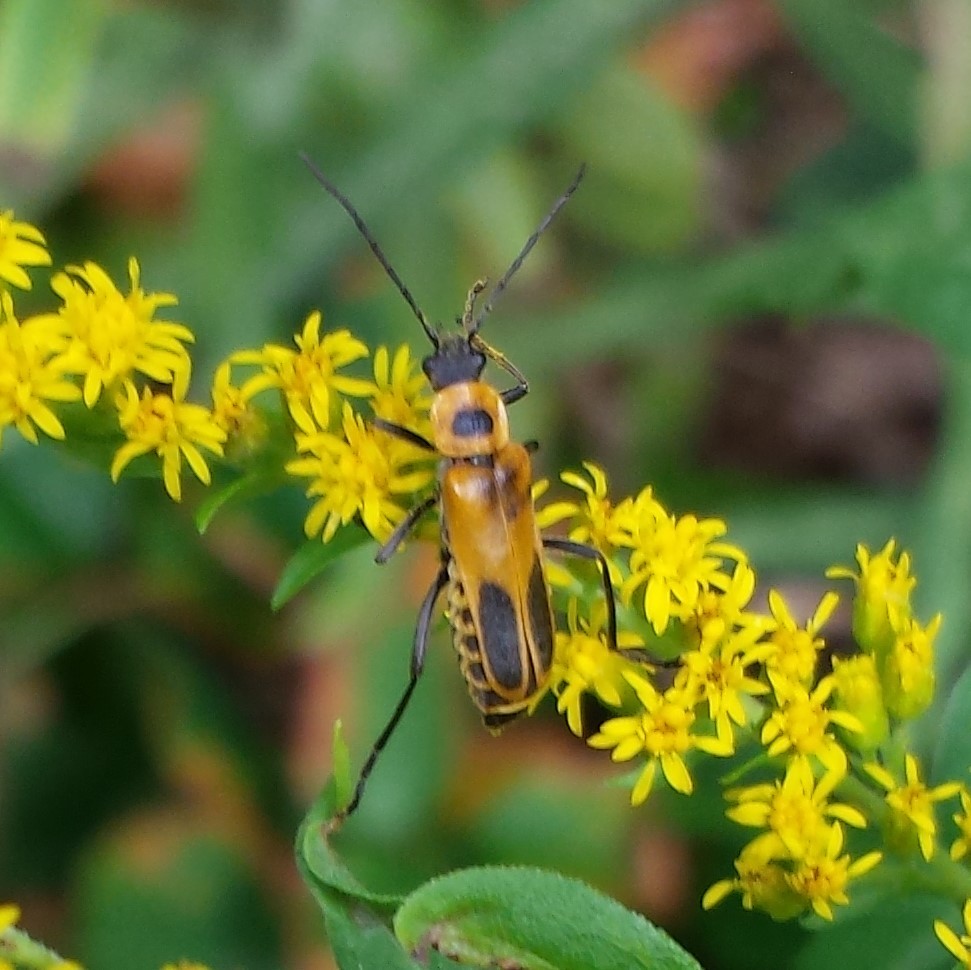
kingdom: Animalia
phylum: Arthropoda
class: Insecta
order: Coleoptera
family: Cantharidae
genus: Chauliognathus
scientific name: Chauliognathus pensylvanicus
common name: Goldenrod soldier beetle
